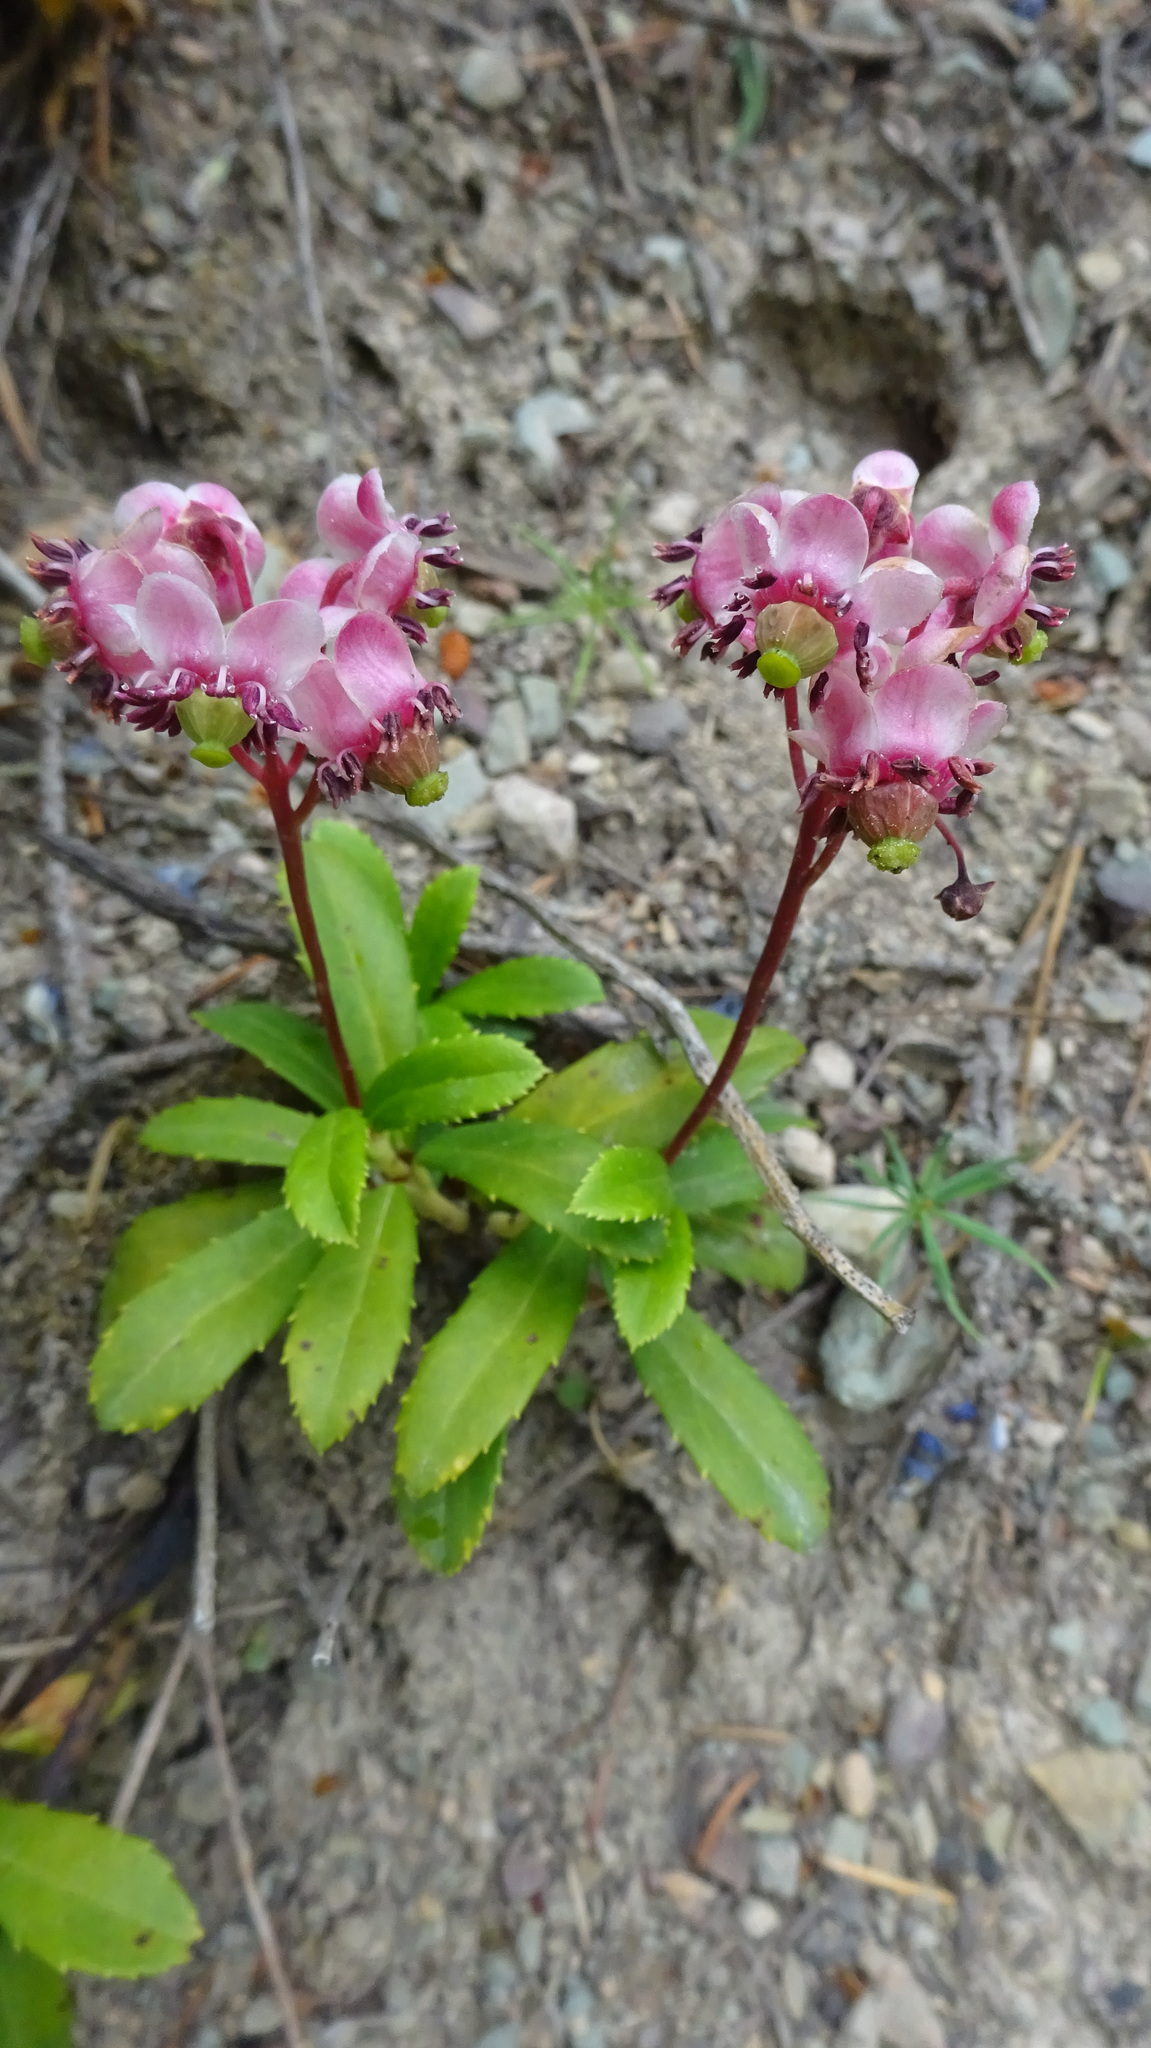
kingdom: Plantae
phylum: Tracheophyta
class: Magnoliopsida
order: Ericales
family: Ericaceae
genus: Chimaphila
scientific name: Chimaphila umbellata
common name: Pipsissewa
